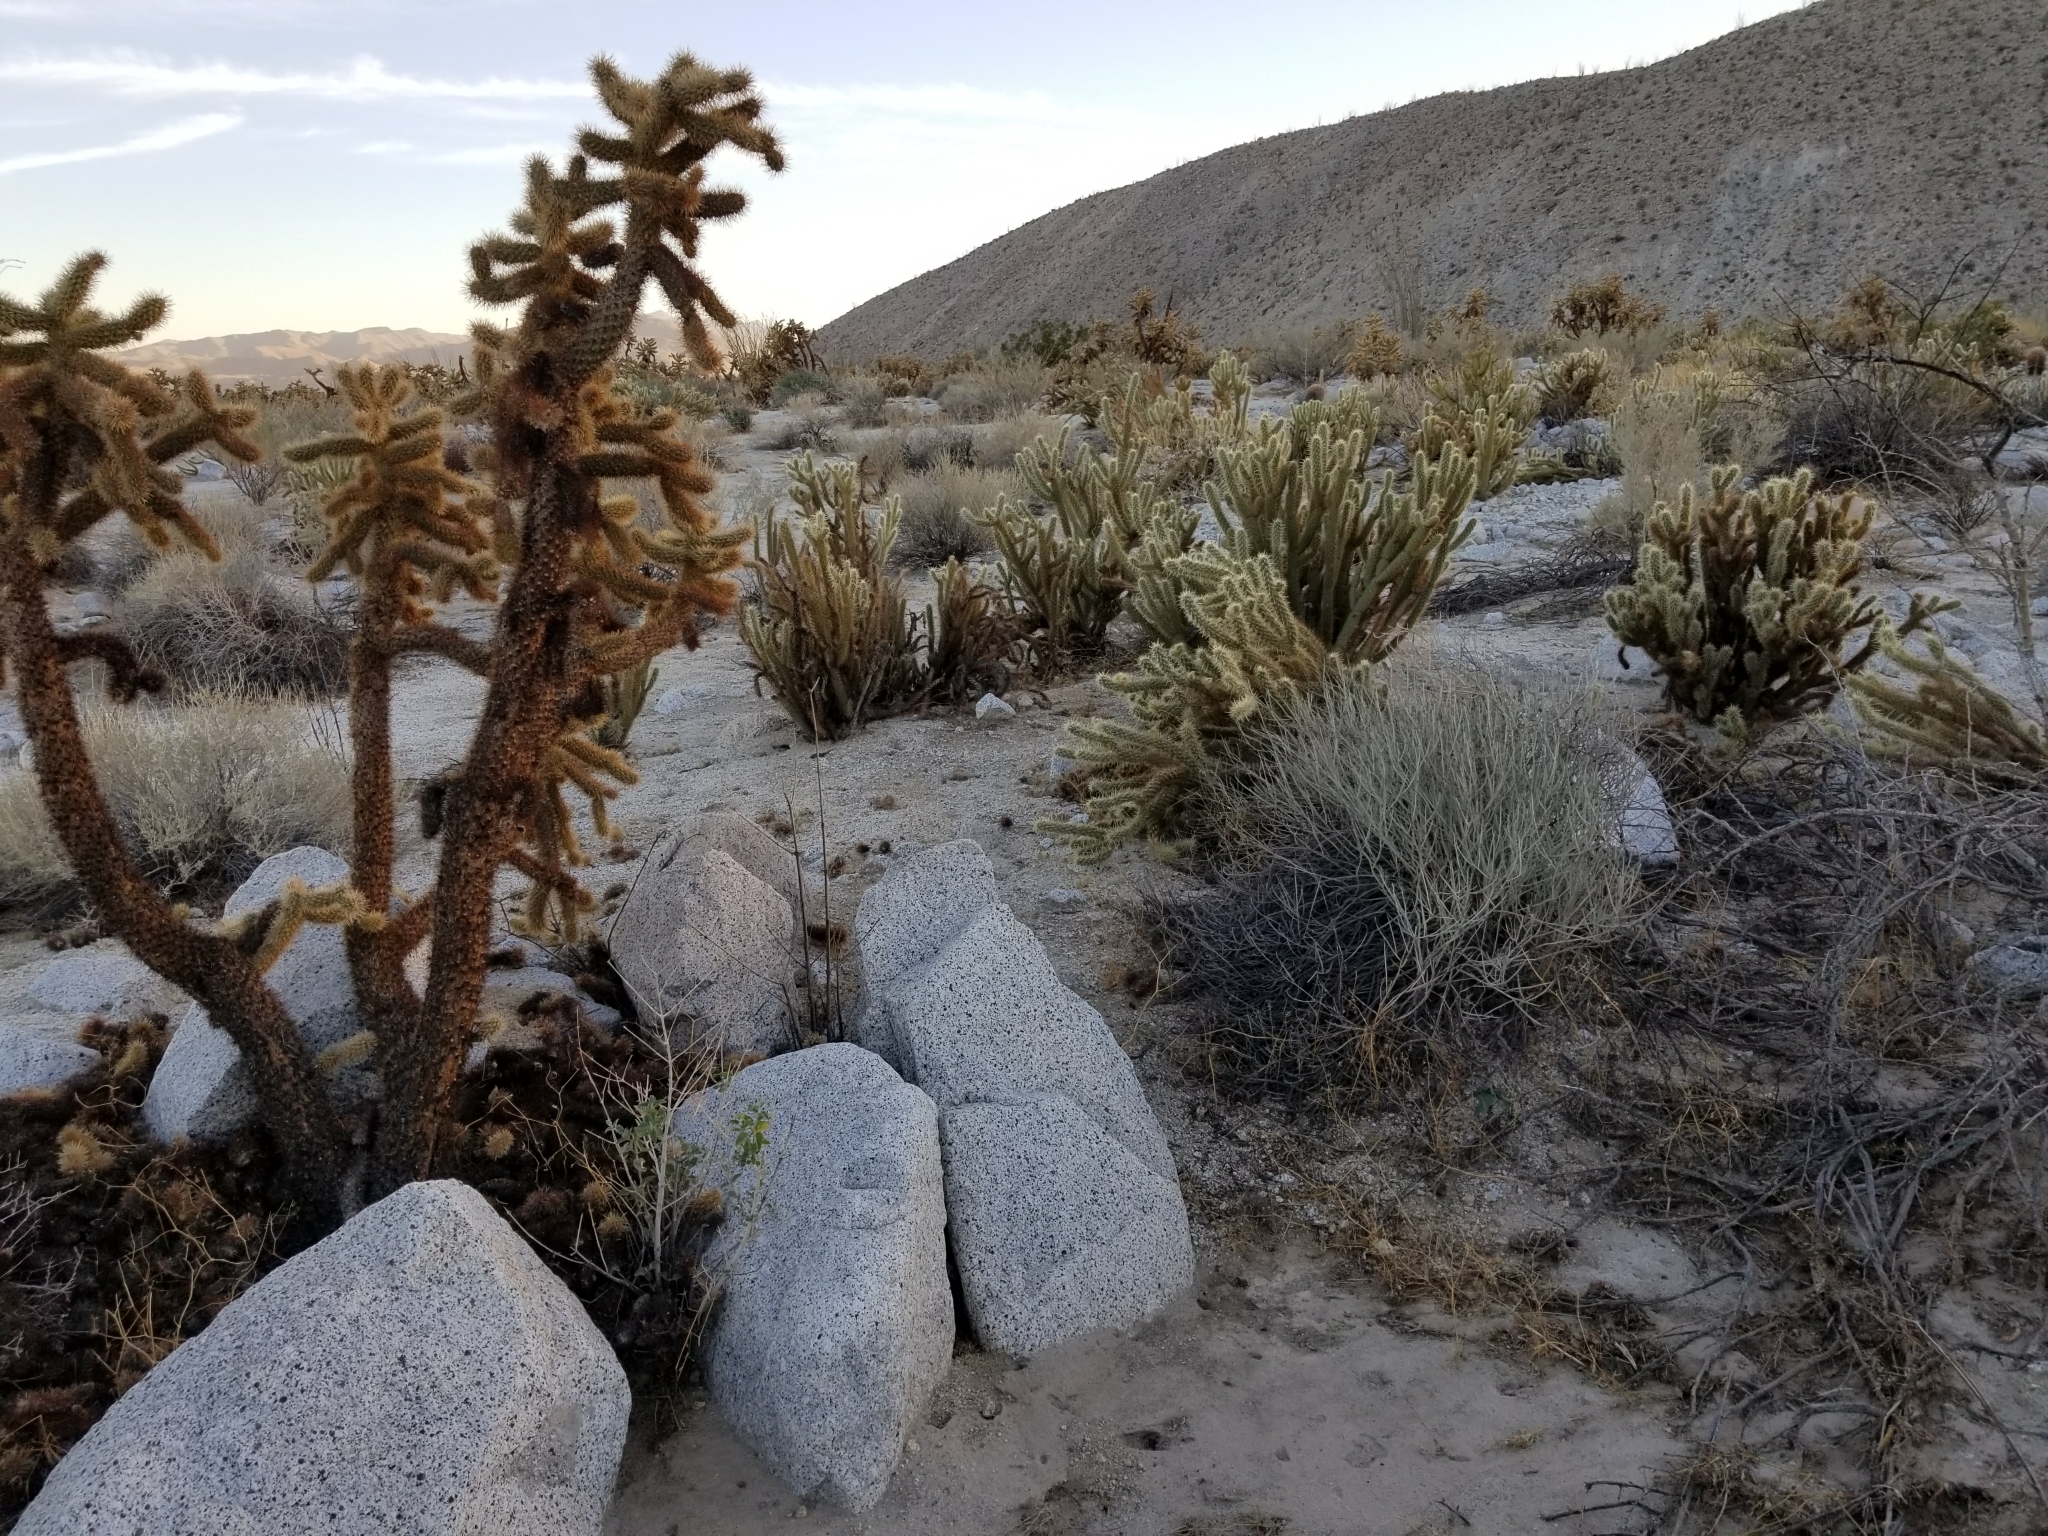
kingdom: Plantae
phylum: Tracheophyta
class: Magnoliopsida
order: Caryophyllales
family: Cactaceae
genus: Cylindropuntia
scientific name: Cylindropuntia fosbergii
